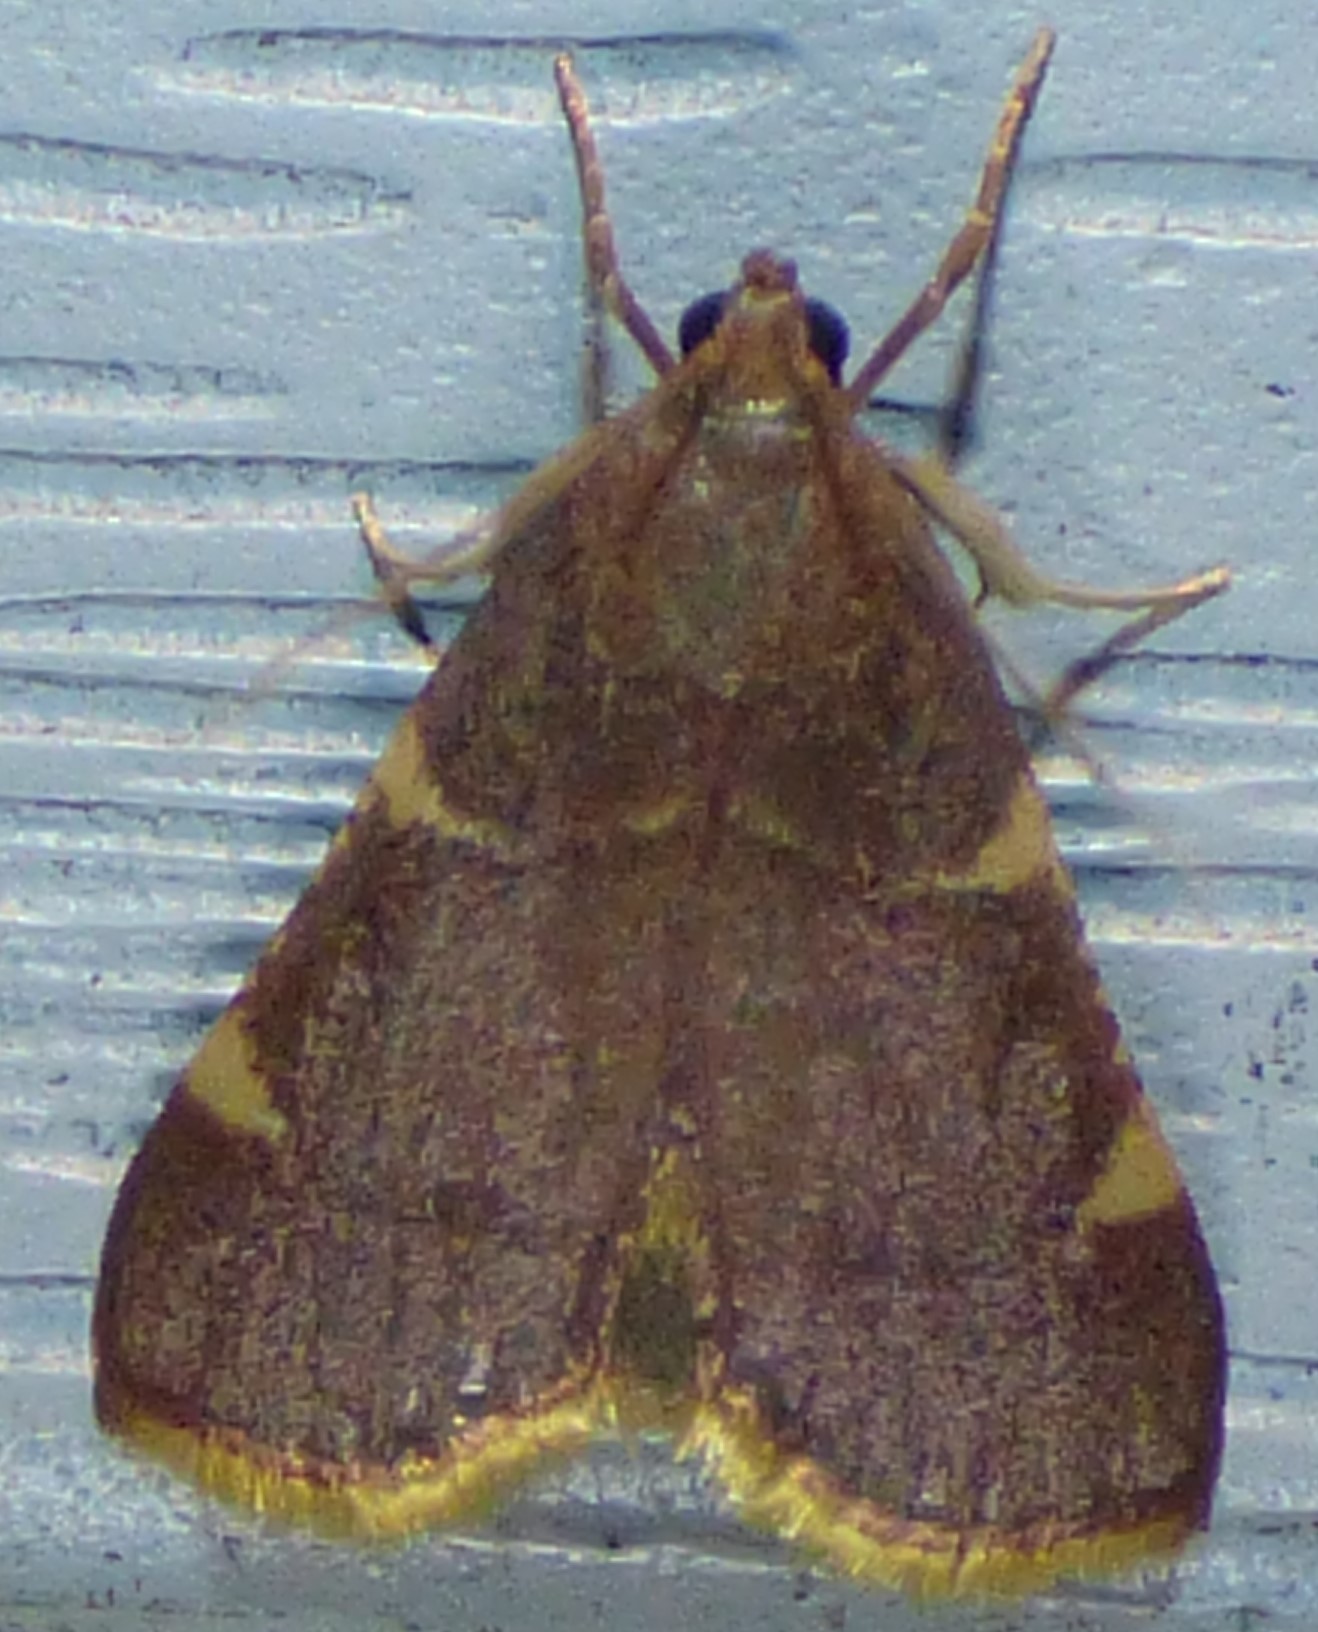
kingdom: Animalia
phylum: Arthropoda
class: Insecta
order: Lepidoptera
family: Pyralidae
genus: Hypsopygia
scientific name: Hypsopygia olinalis
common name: Yellow-fringed dolichomia moth
